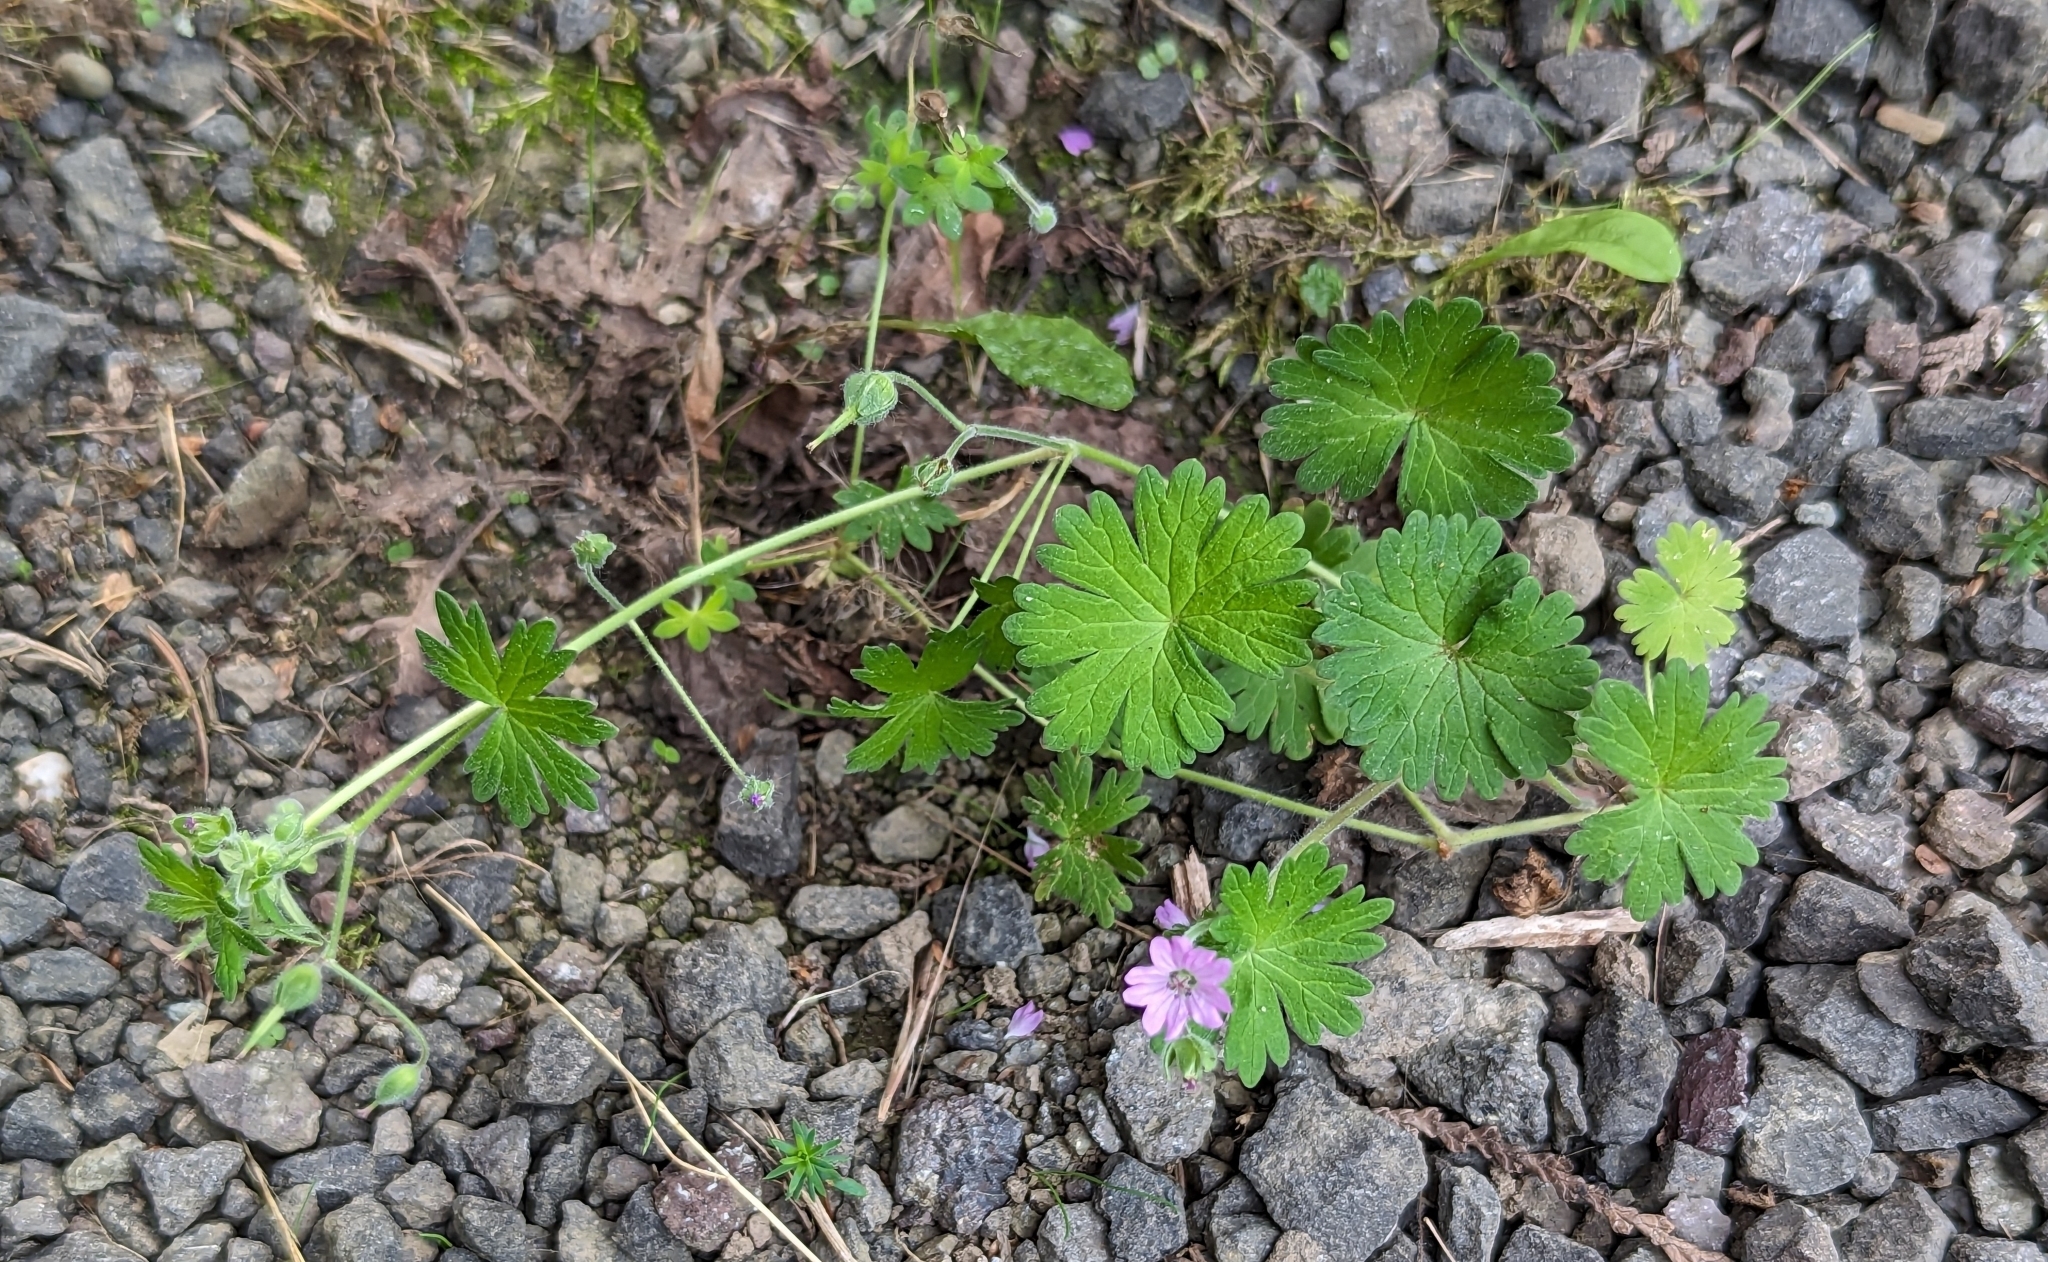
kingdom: Plantae
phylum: Tracheophyta
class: Magnoliopsida
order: Geraniales
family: Geraniaceae
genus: Geranium
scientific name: Geranium molle
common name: Dove's-foot crane's-bill
